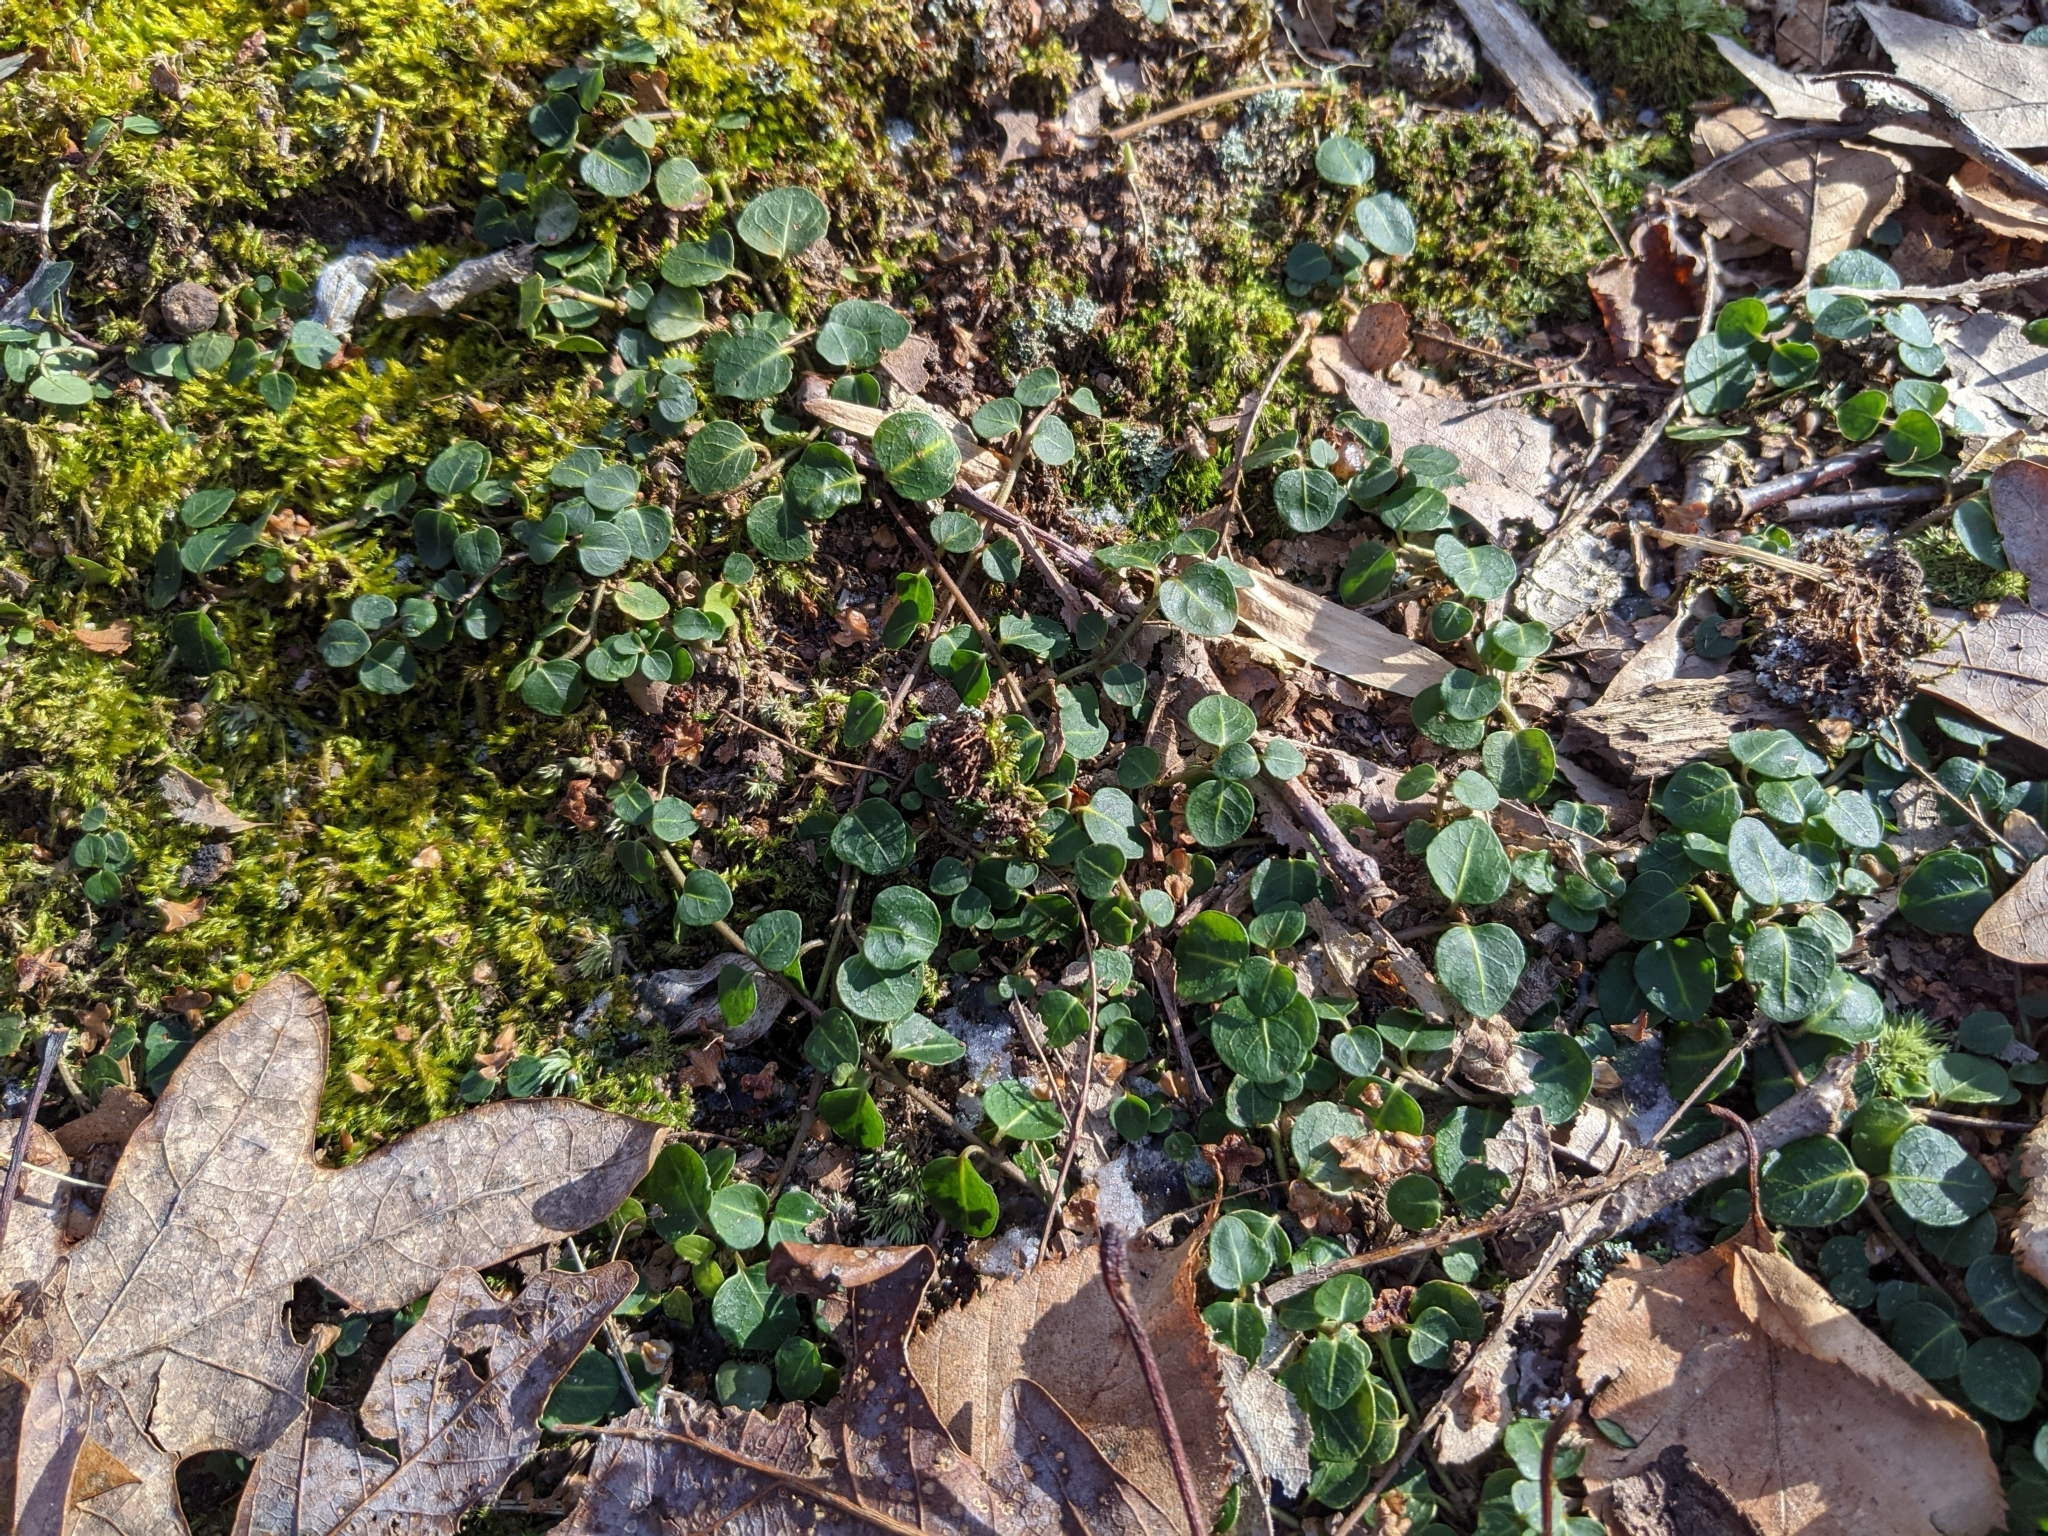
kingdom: Plantae
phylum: Tracheophyta
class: Magnoliopsida
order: Gentianales
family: Rubiaceae
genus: Mitchella
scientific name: Mitchella repens
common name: Partridge-berry
